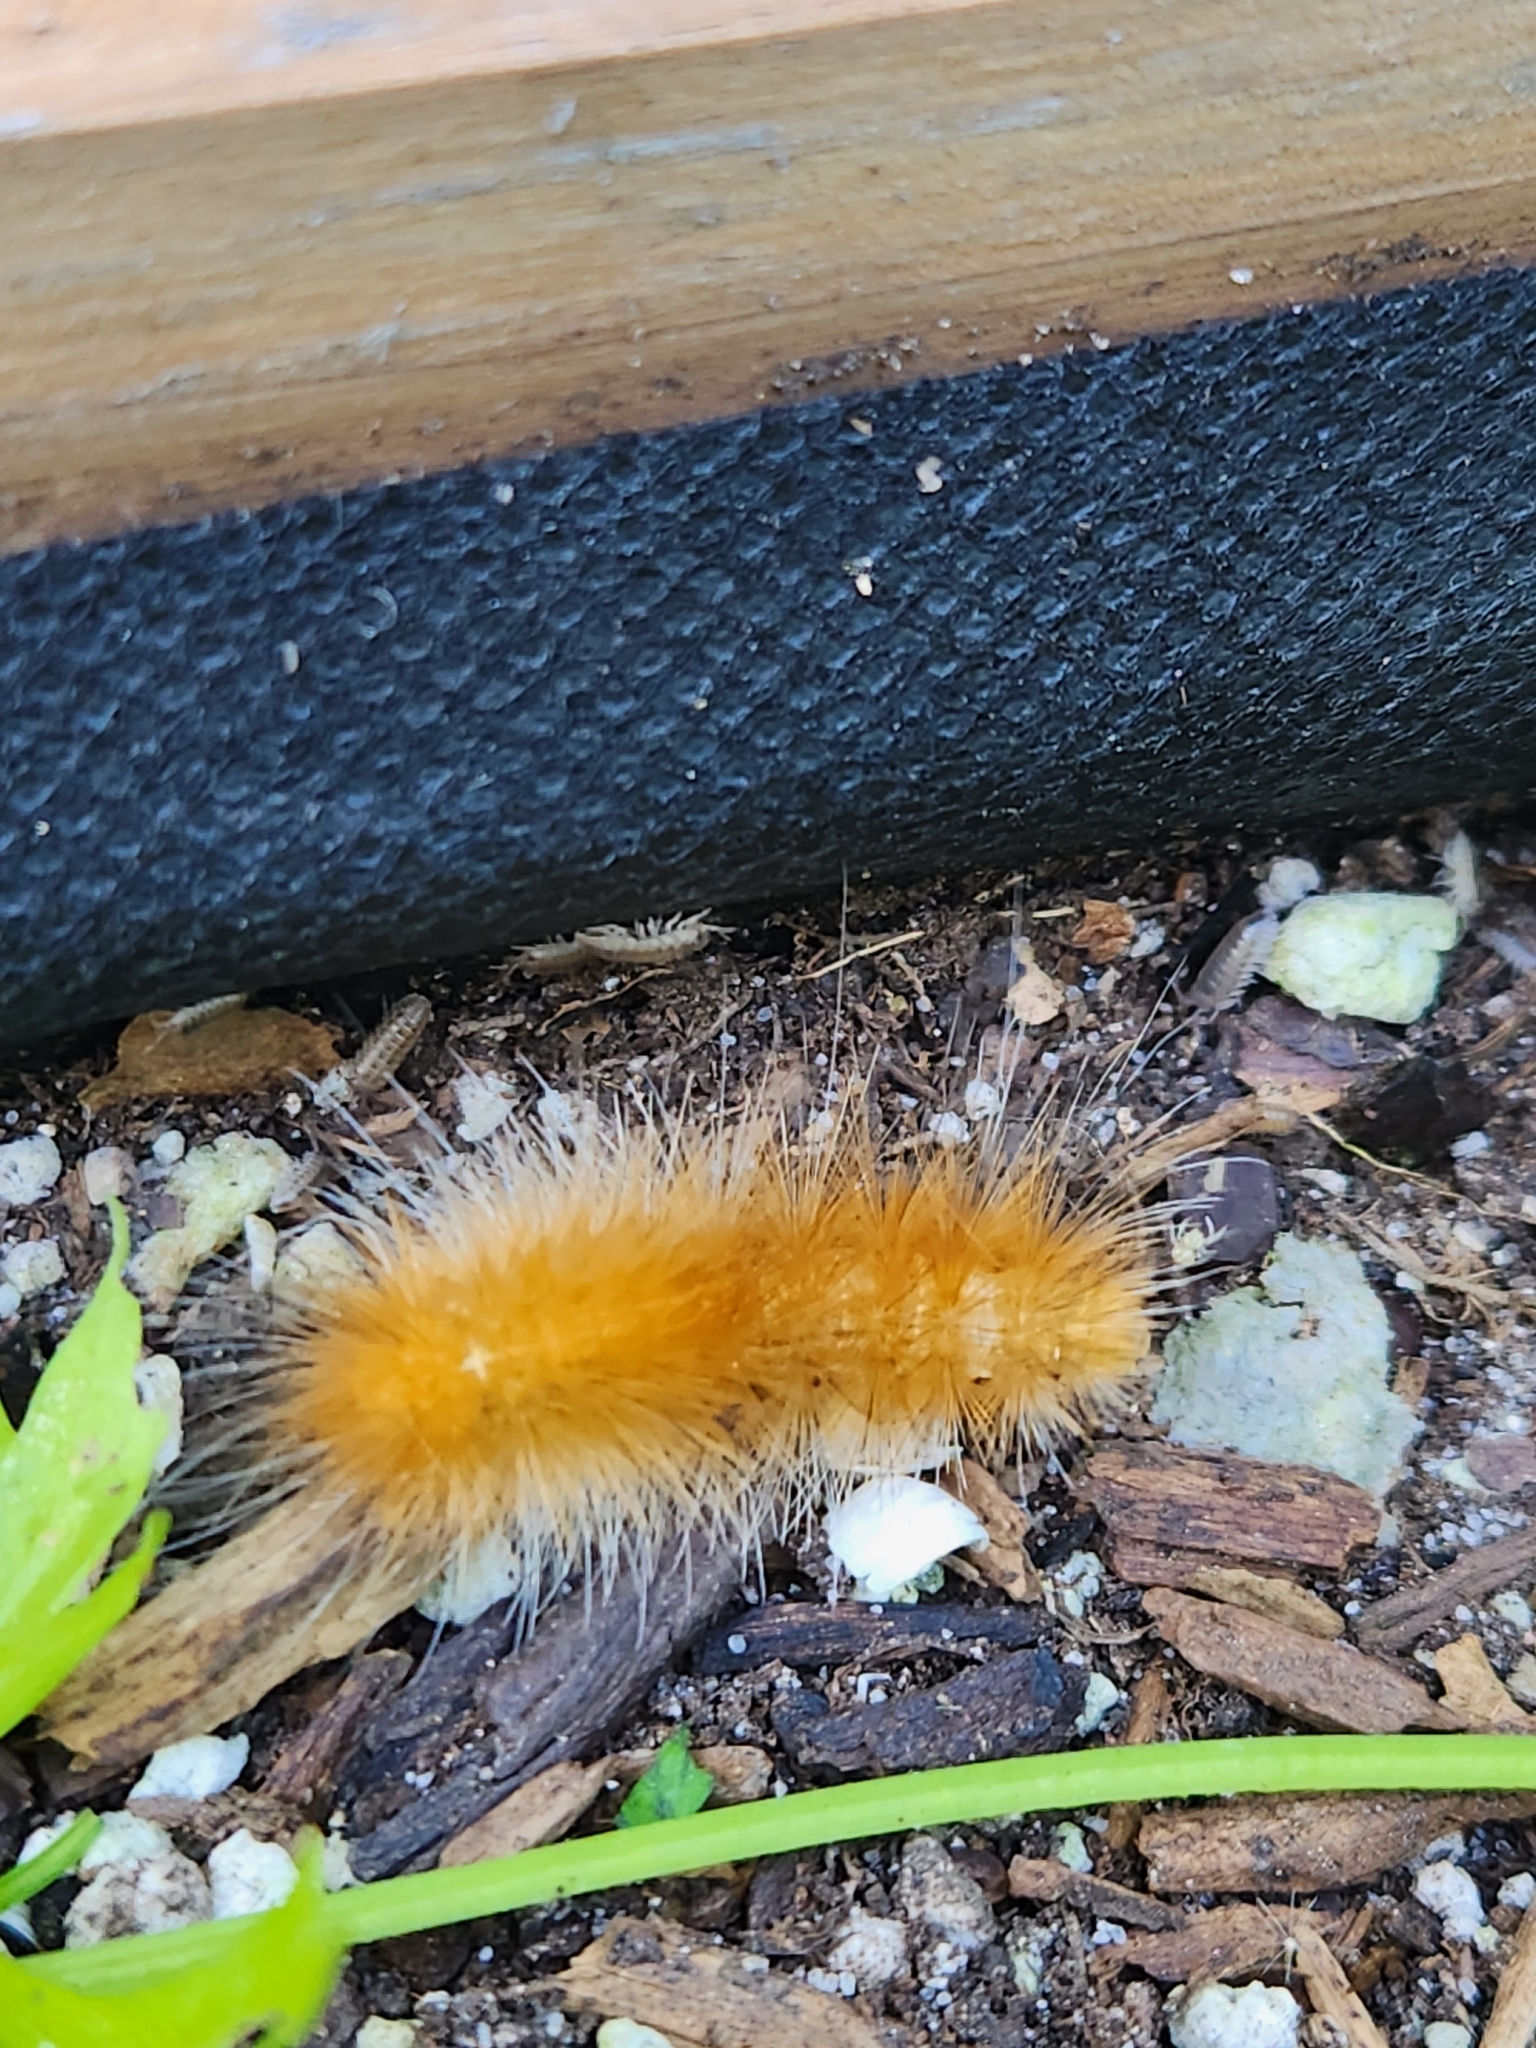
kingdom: Animalia
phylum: Arthropoda
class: Insecta
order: Lepidoptera
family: Erebidae
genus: Spilosoma
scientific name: Spilosoma virginica
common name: Virginia tiger moth
